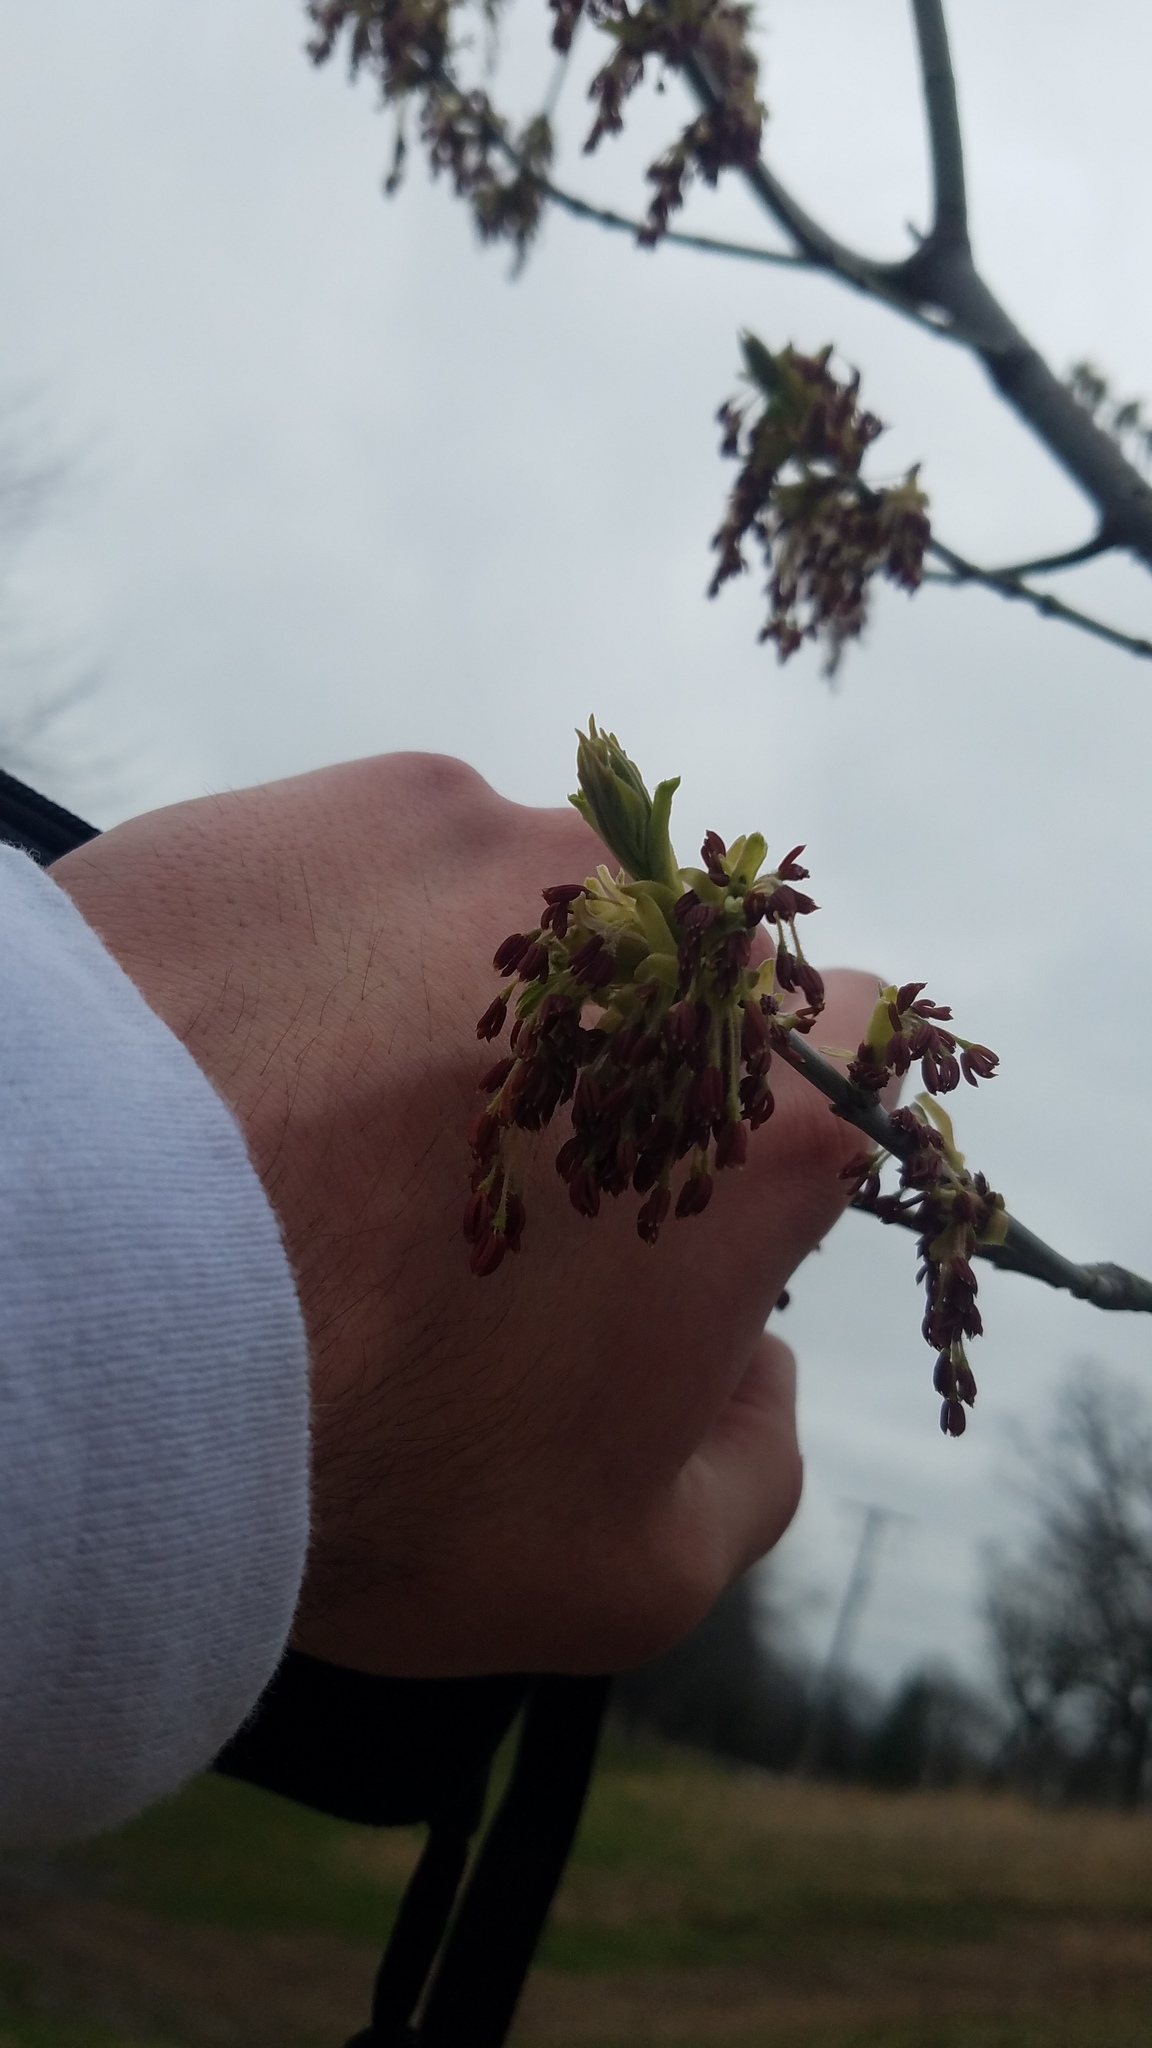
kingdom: Plantae
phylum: Tracheophyta
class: Magnoliopsida
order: Sapindales
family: Sapindaceae
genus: Acer
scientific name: Acer negundo
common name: Ashleaf maple
